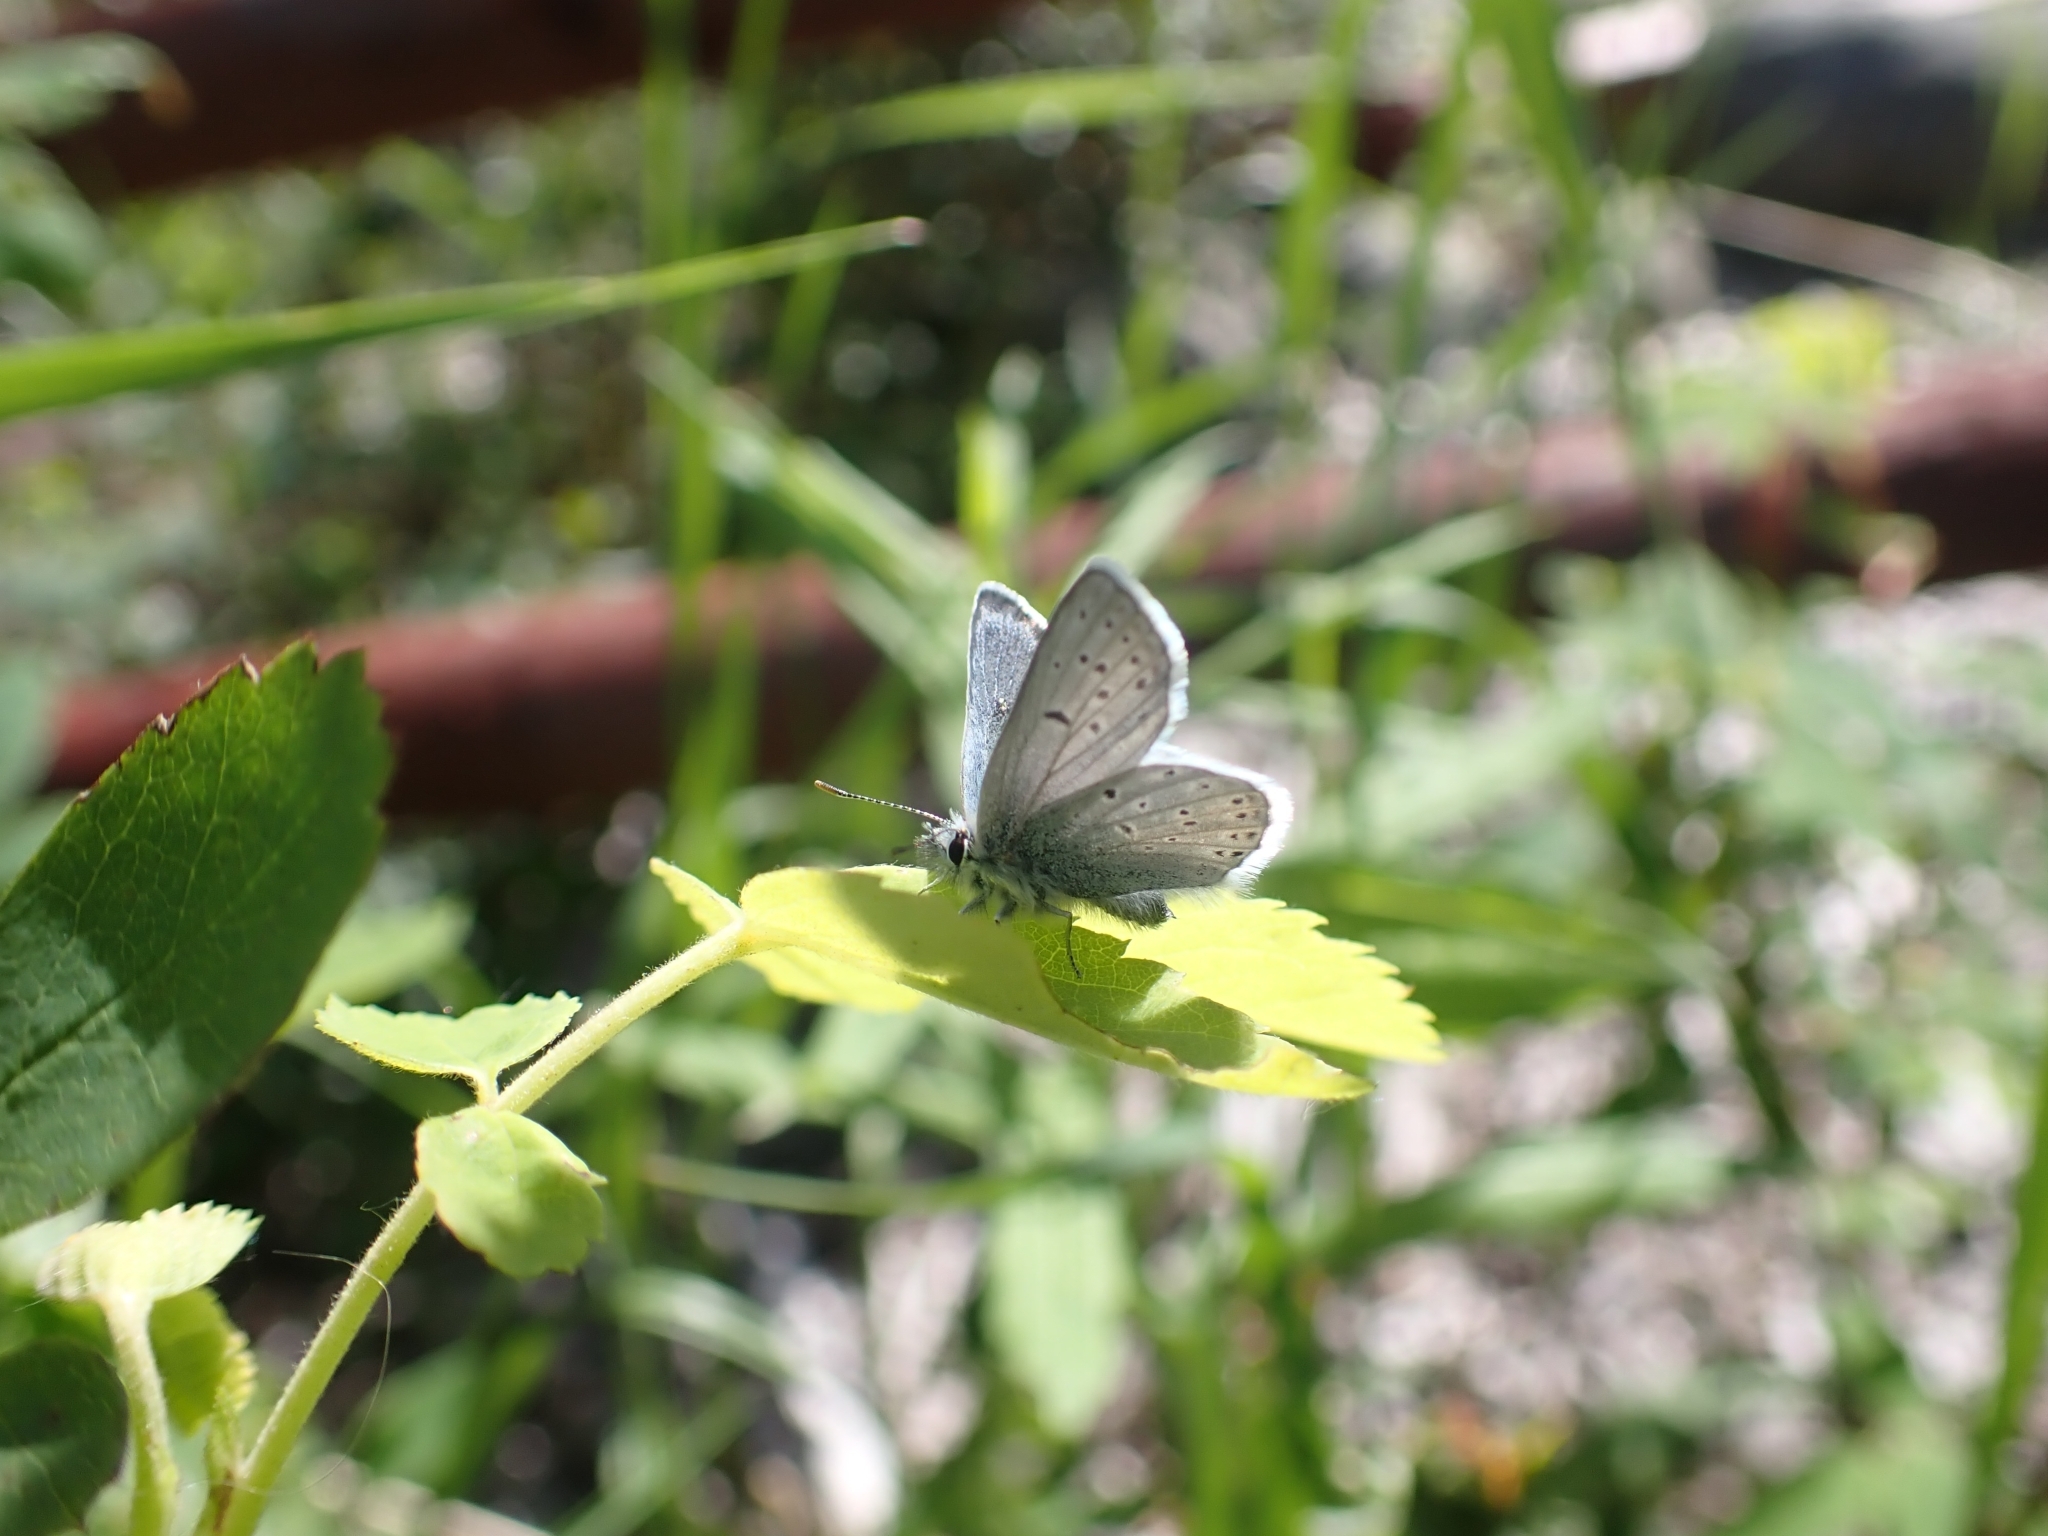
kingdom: Animalia
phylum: Arthropoda
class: Insecta
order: Lepidoptera
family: Lycaenidae
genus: Icaricia
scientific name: Icaricia saepiolus
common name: Greenish blue
